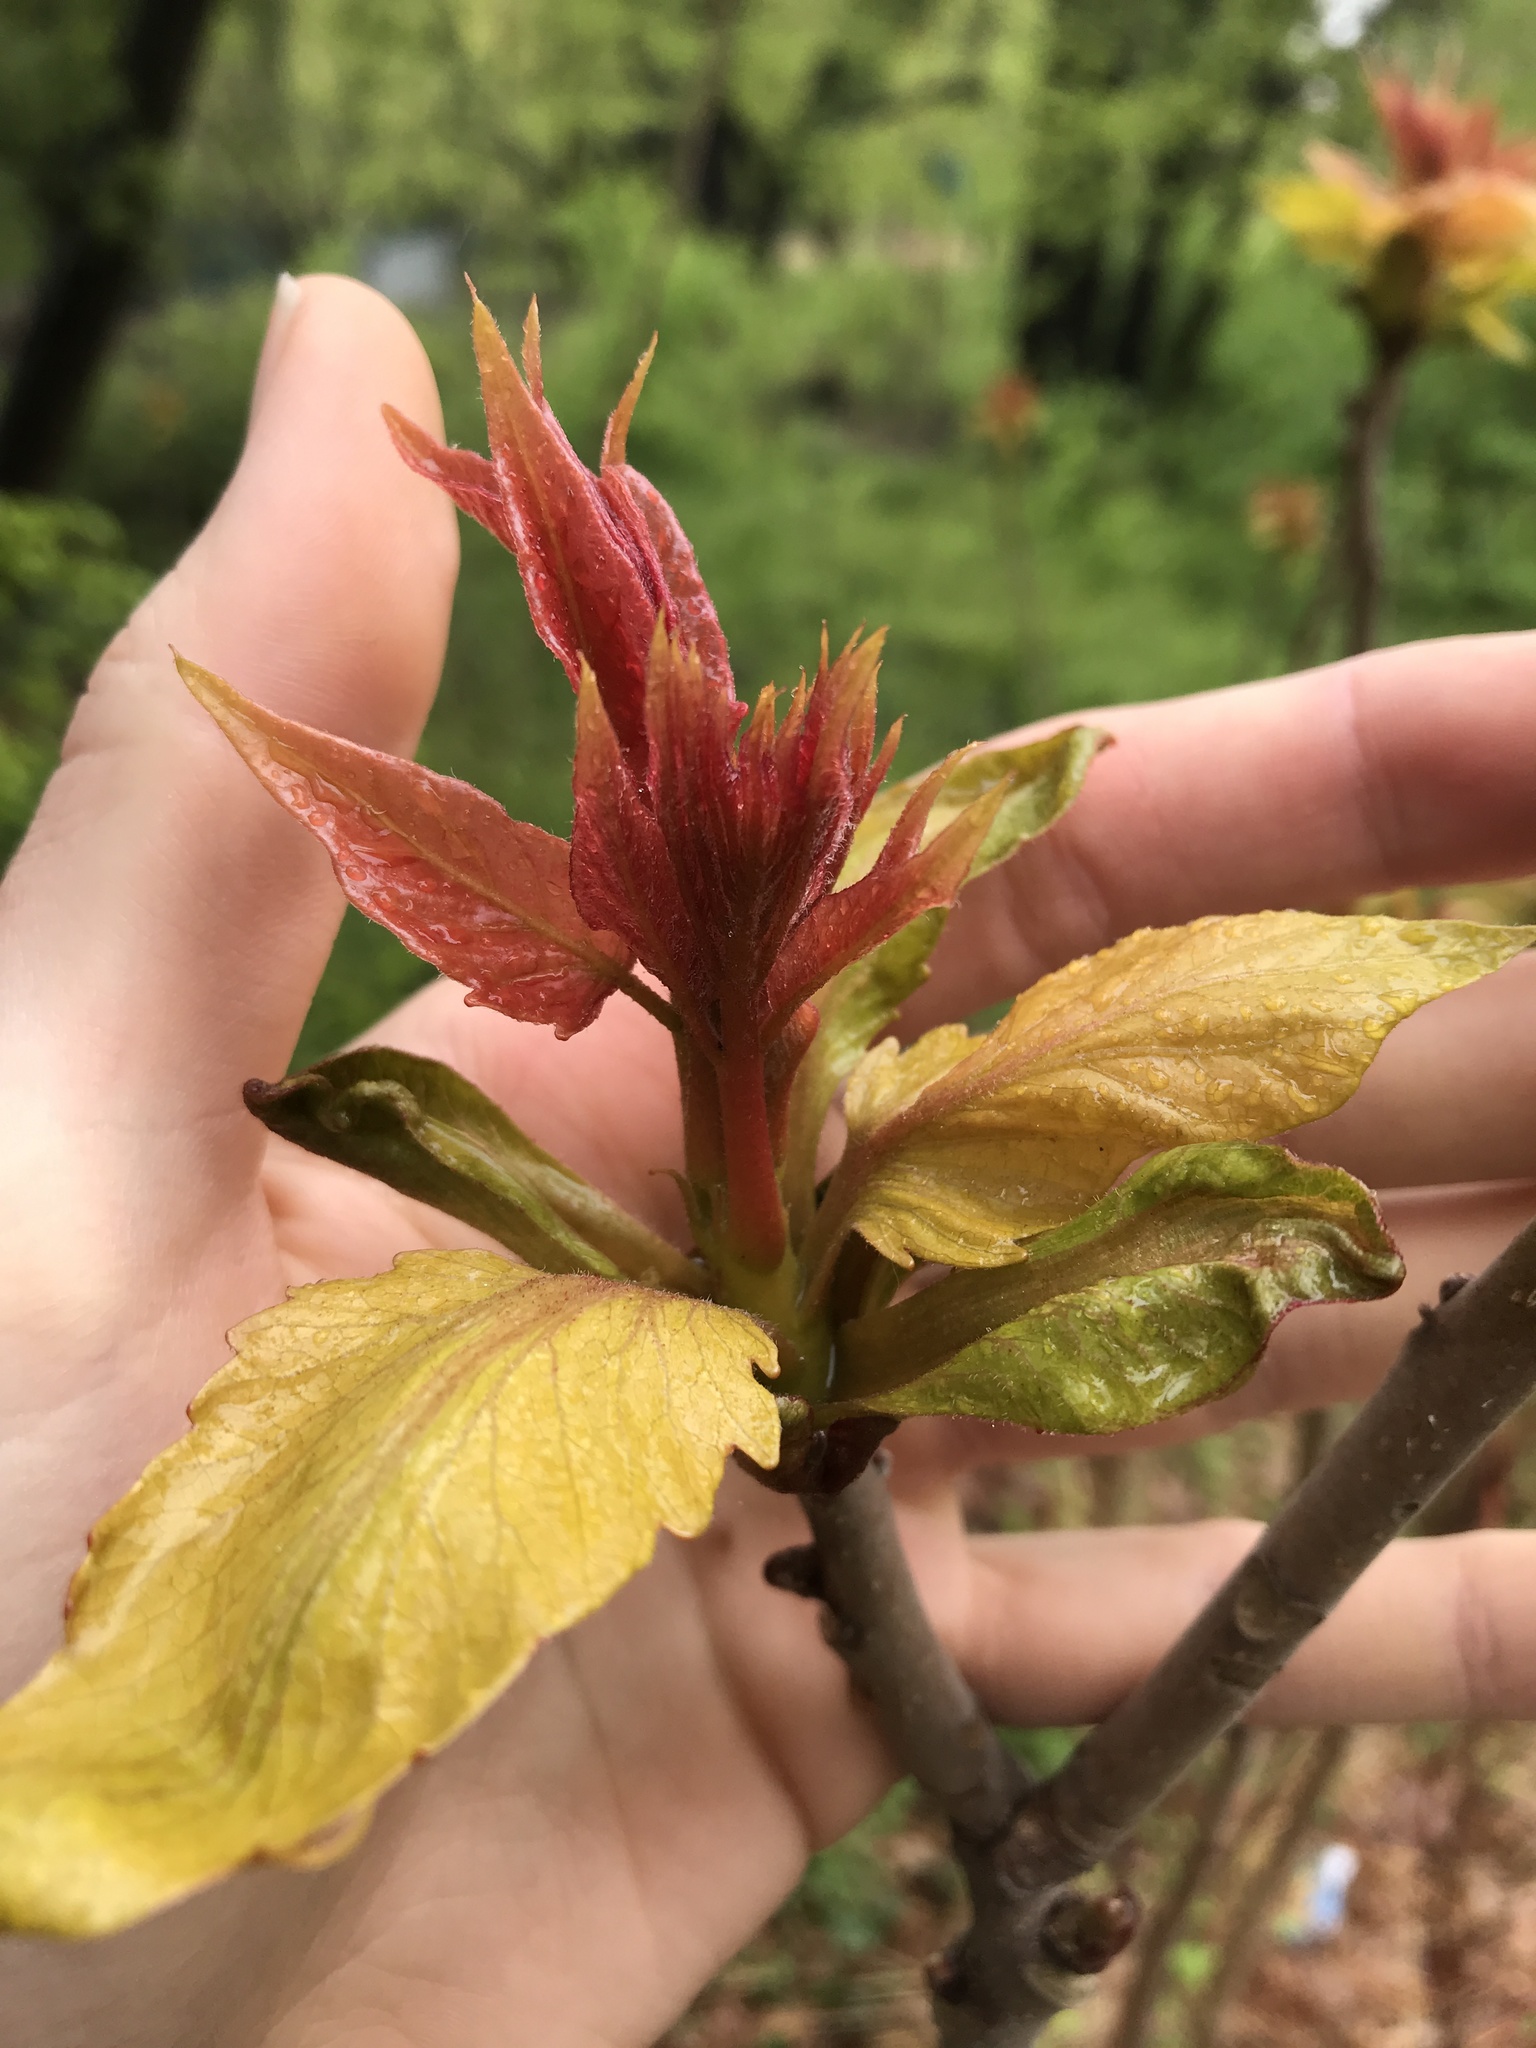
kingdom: Plantae
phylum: Tracheophyta
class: Magnoliopsida
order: Sapindales
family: Simaroubaceae
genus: Ailanthus
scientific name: Ailanthus altissima
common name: Tree-of-heaven
